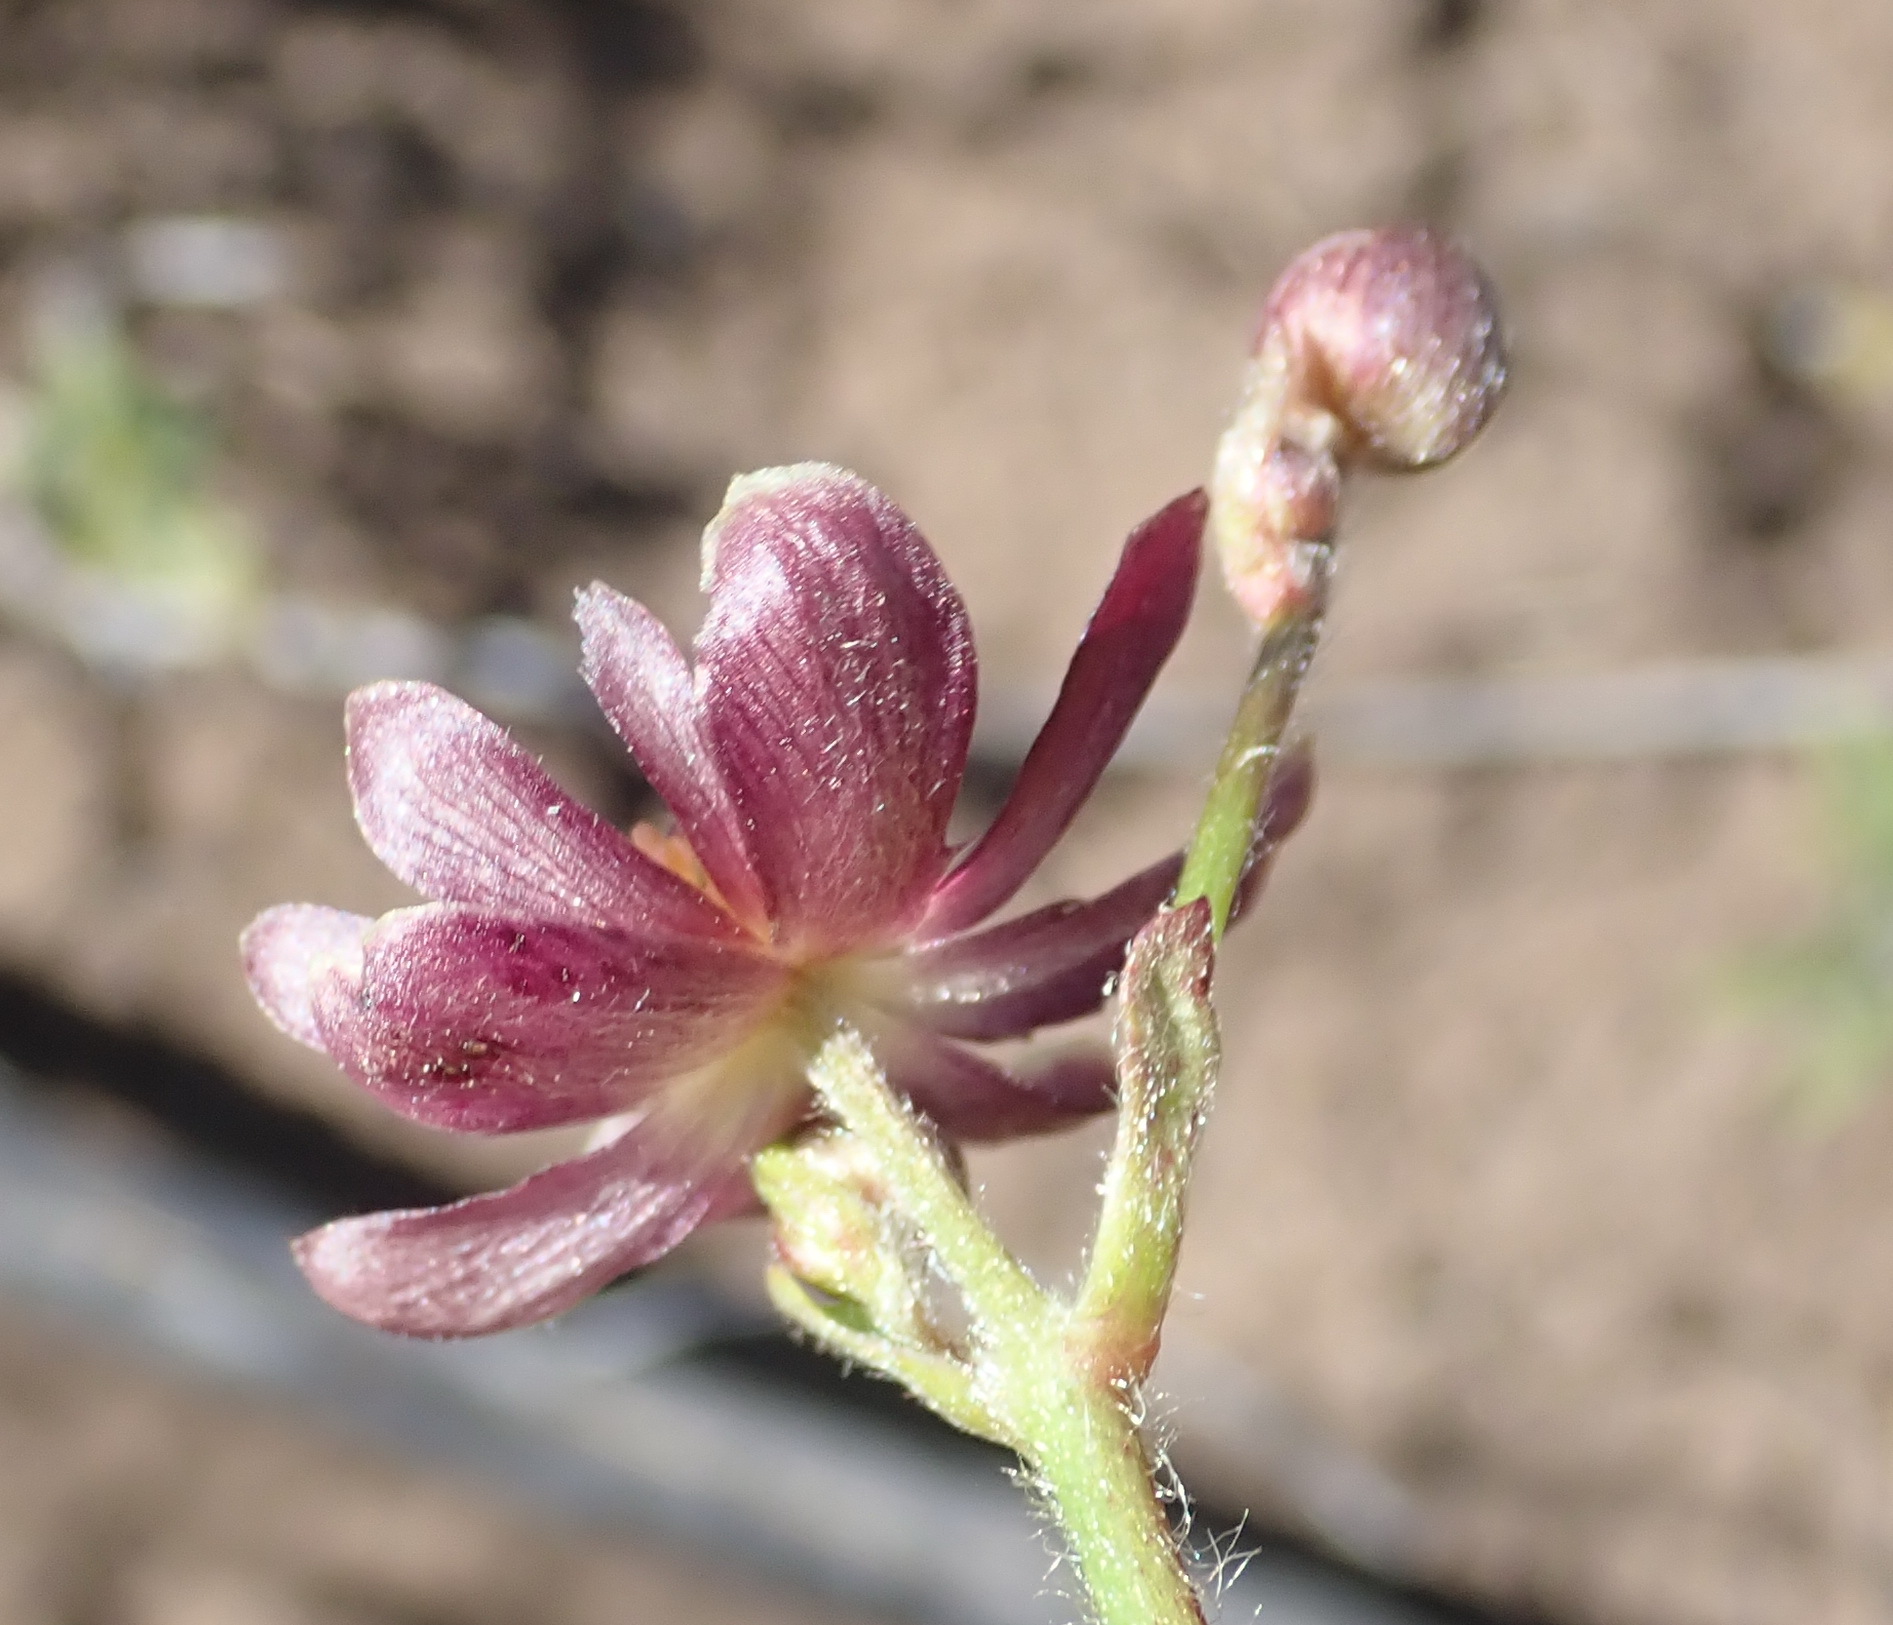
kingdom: Plantae
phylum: Tracheophyta
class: Magnoliopsida
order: Ranunculales
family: Ranunculaceae
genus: Knowltonia
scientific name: Knowltonia filia
